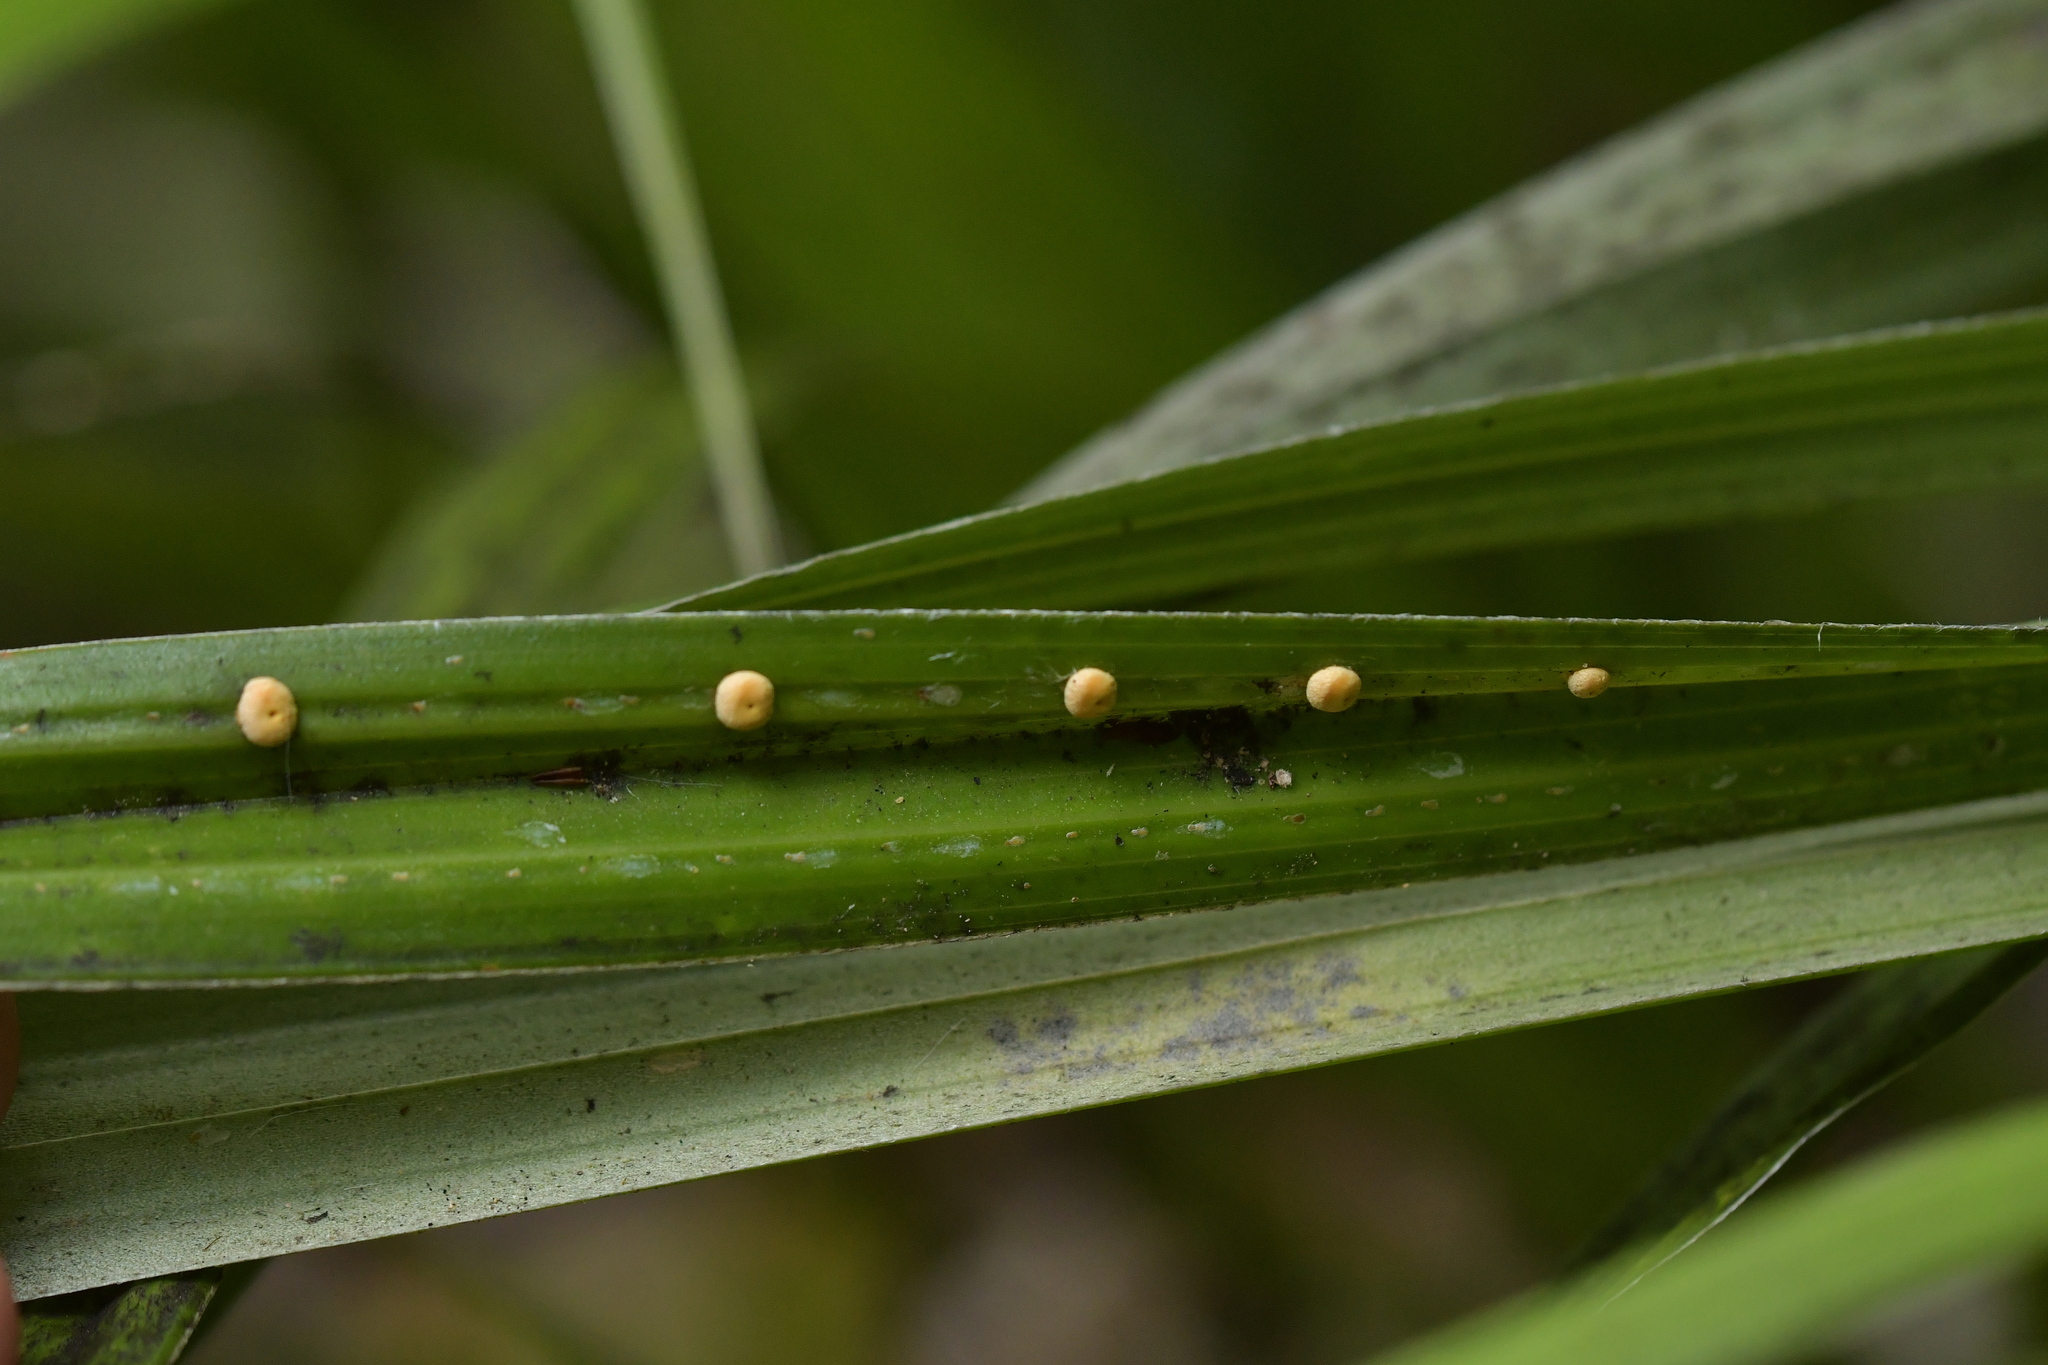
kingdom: Fungi
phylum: Ascomycota
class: Sordariomycetes
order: Hypocreales
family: Clavicipitaceae
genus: Hypocrella
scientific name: Hypocrella
